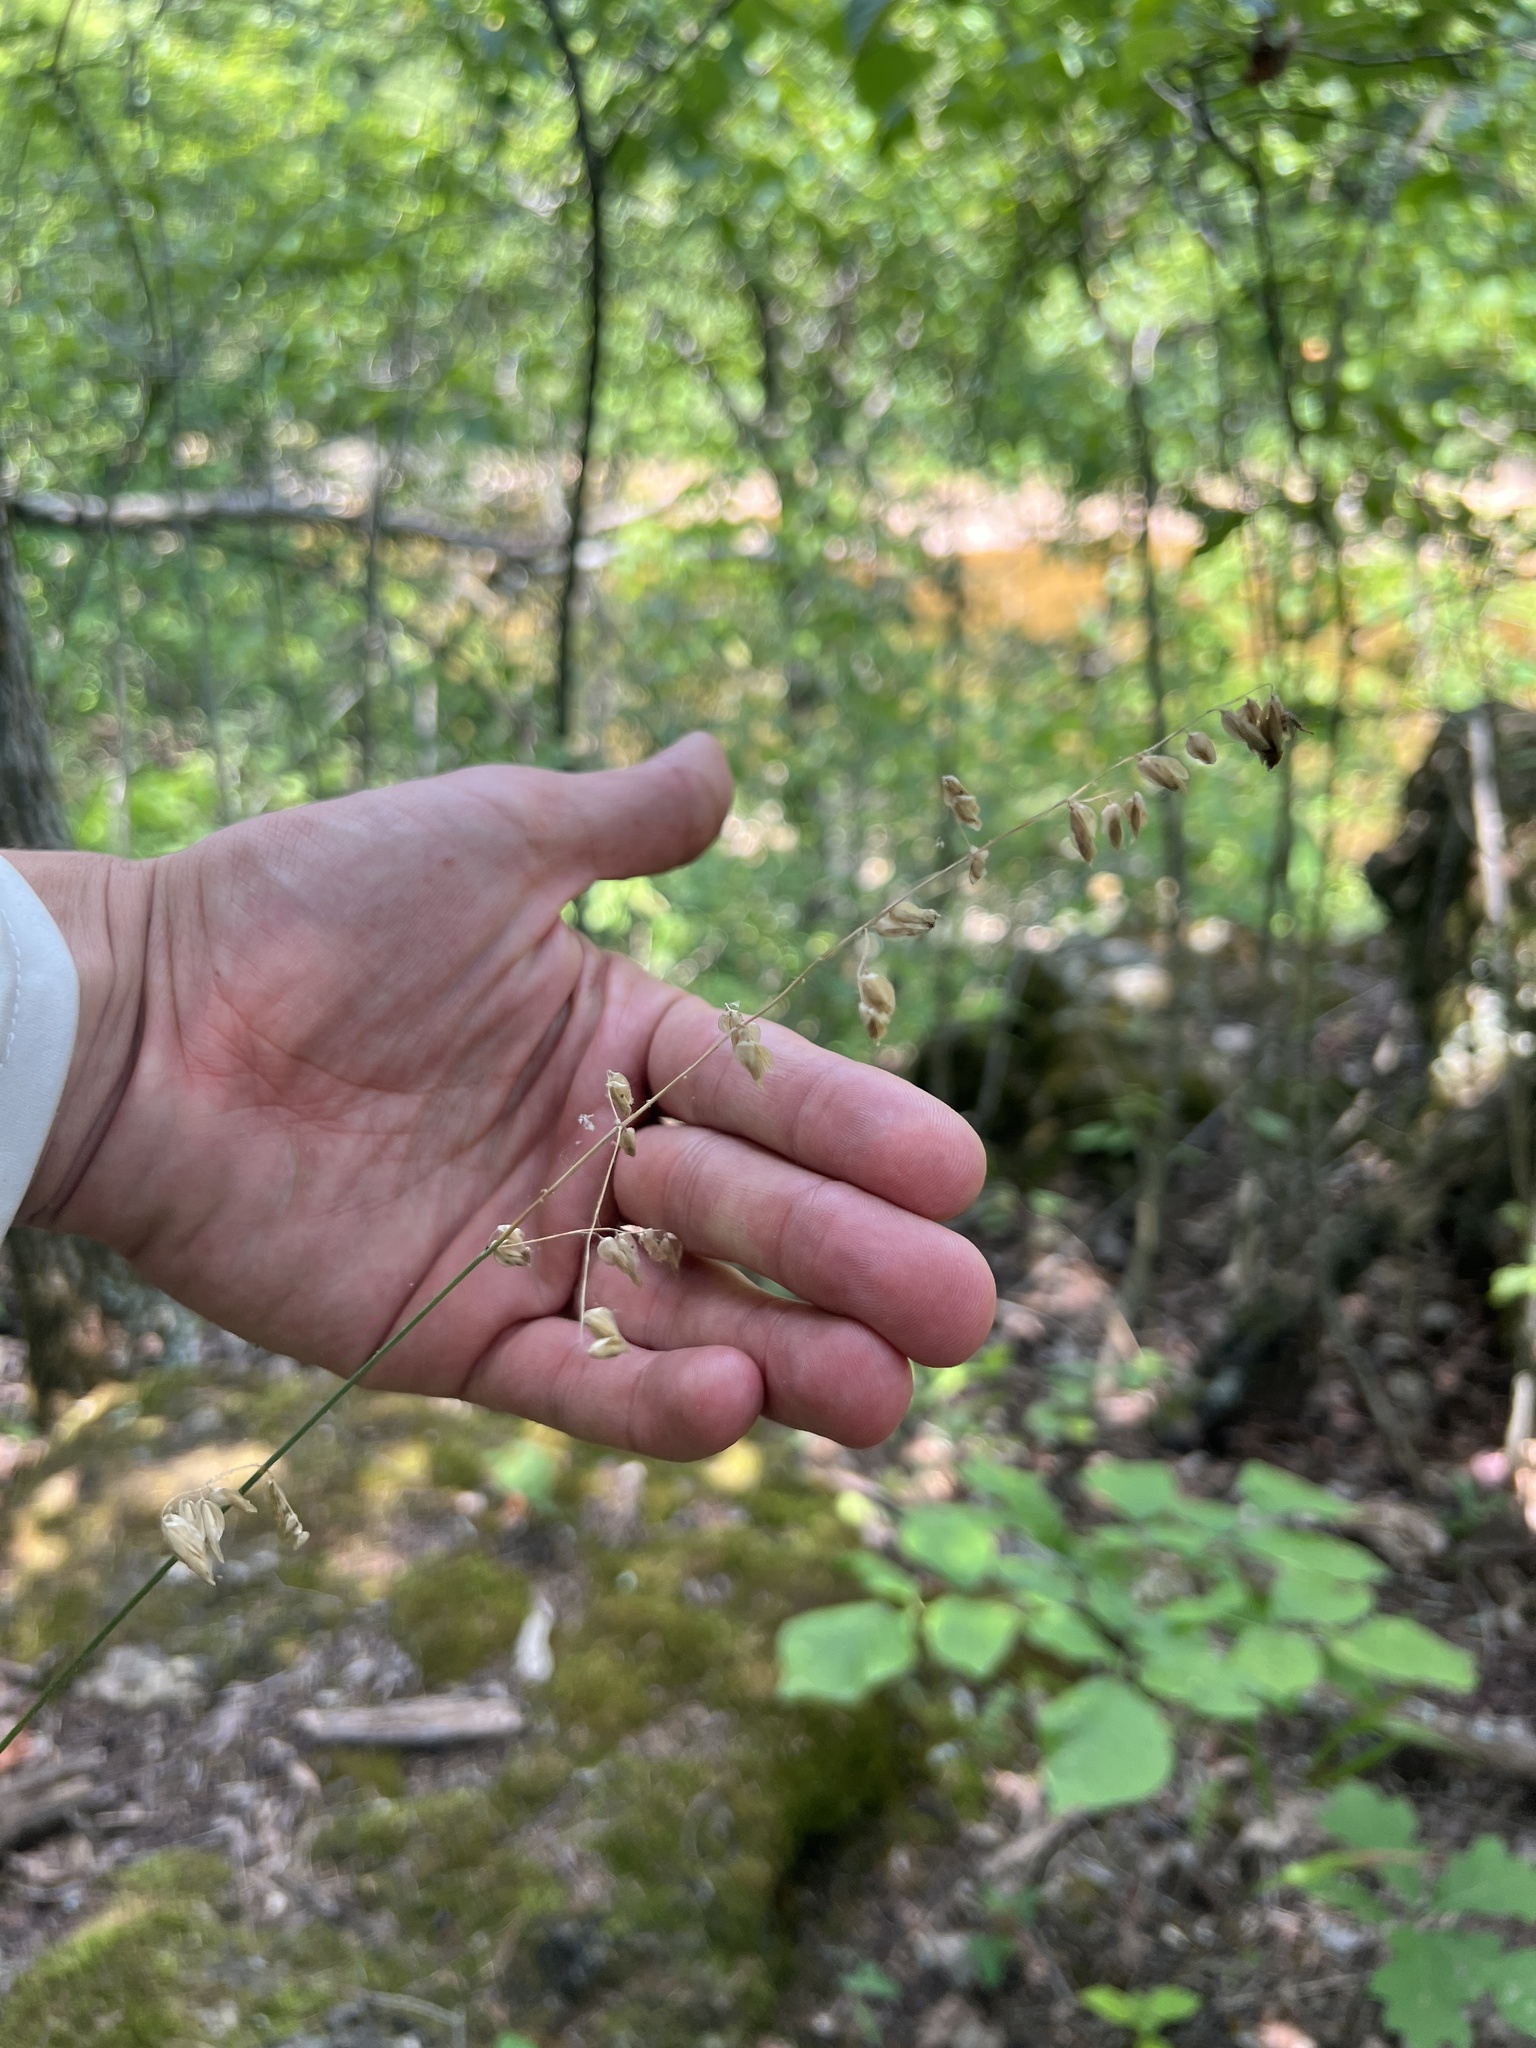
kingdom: Plantae
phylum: Tracheophyta
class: Liliopsida
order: Poales
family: Poaceae
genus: Melica
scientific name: Melica nitens
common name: Three-flower melic
